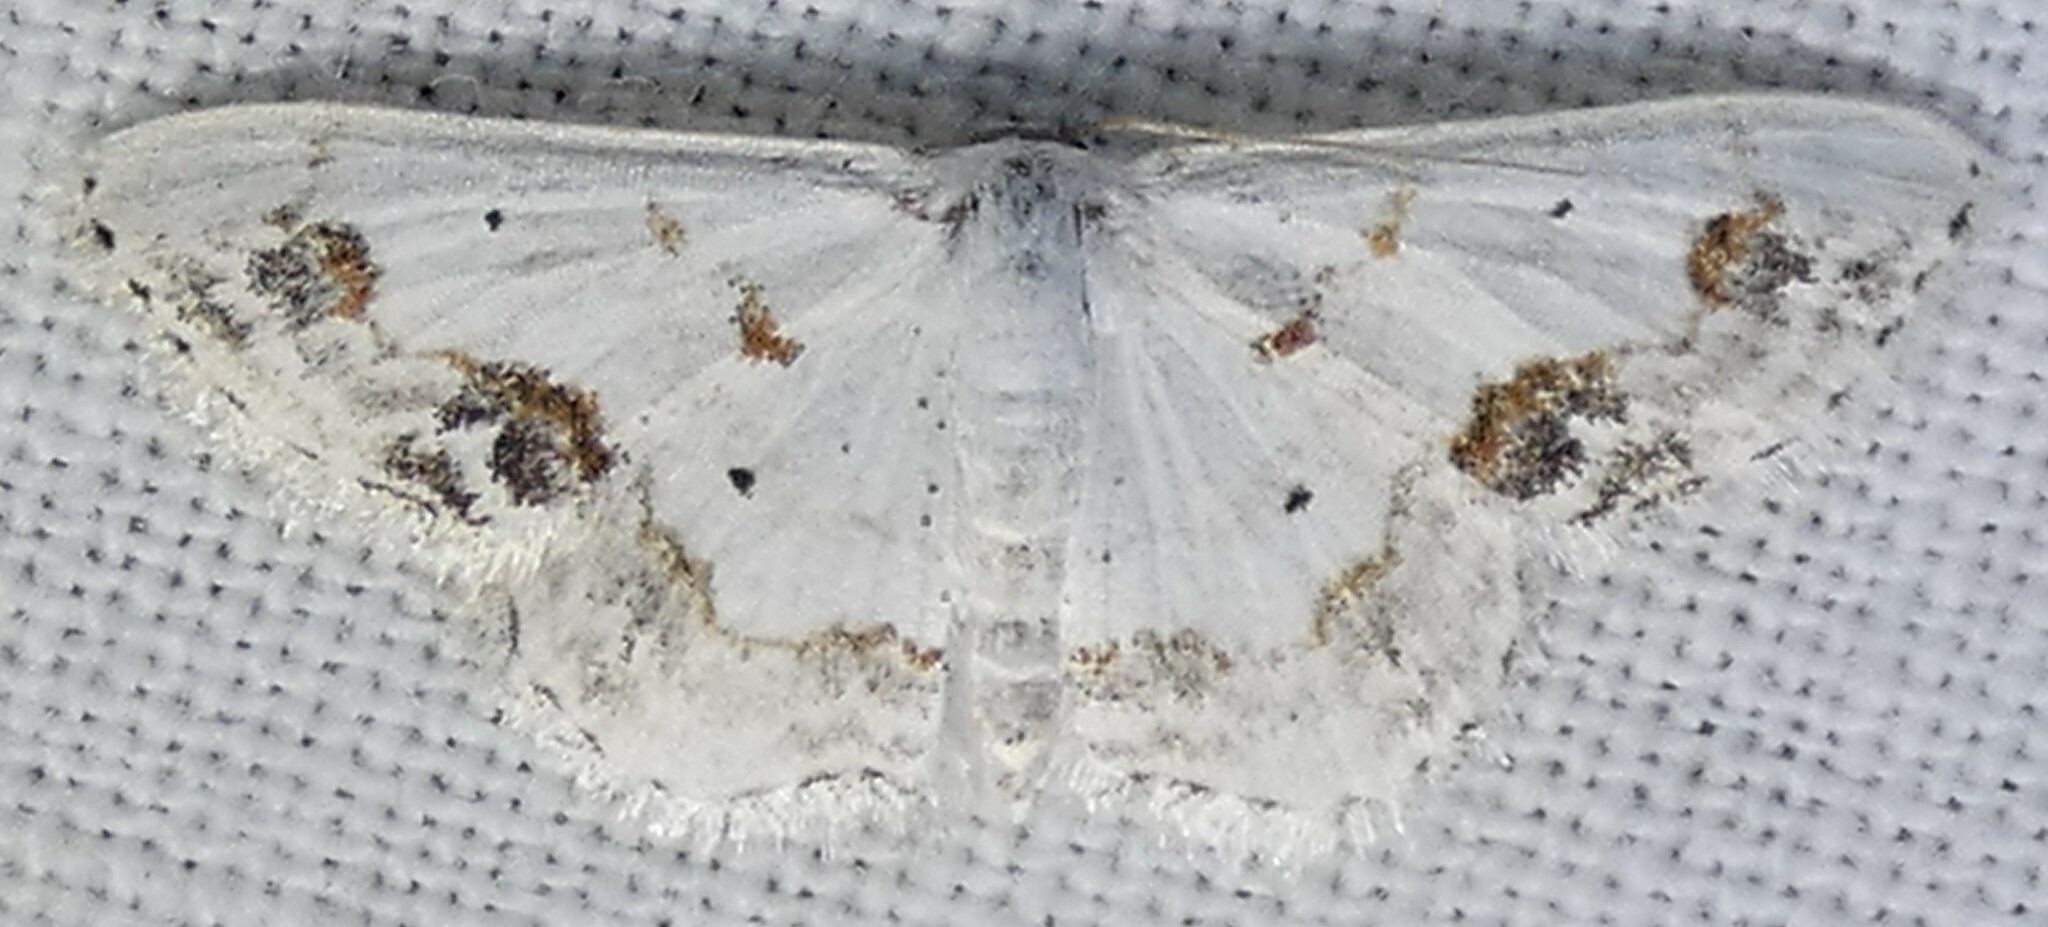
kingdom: Animalia
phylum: Arthropoda
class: Insecta
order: Lepidoptera
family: Geometridae
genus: Scopula
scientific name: Scopula lautaria
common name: Small frosted wave moth
